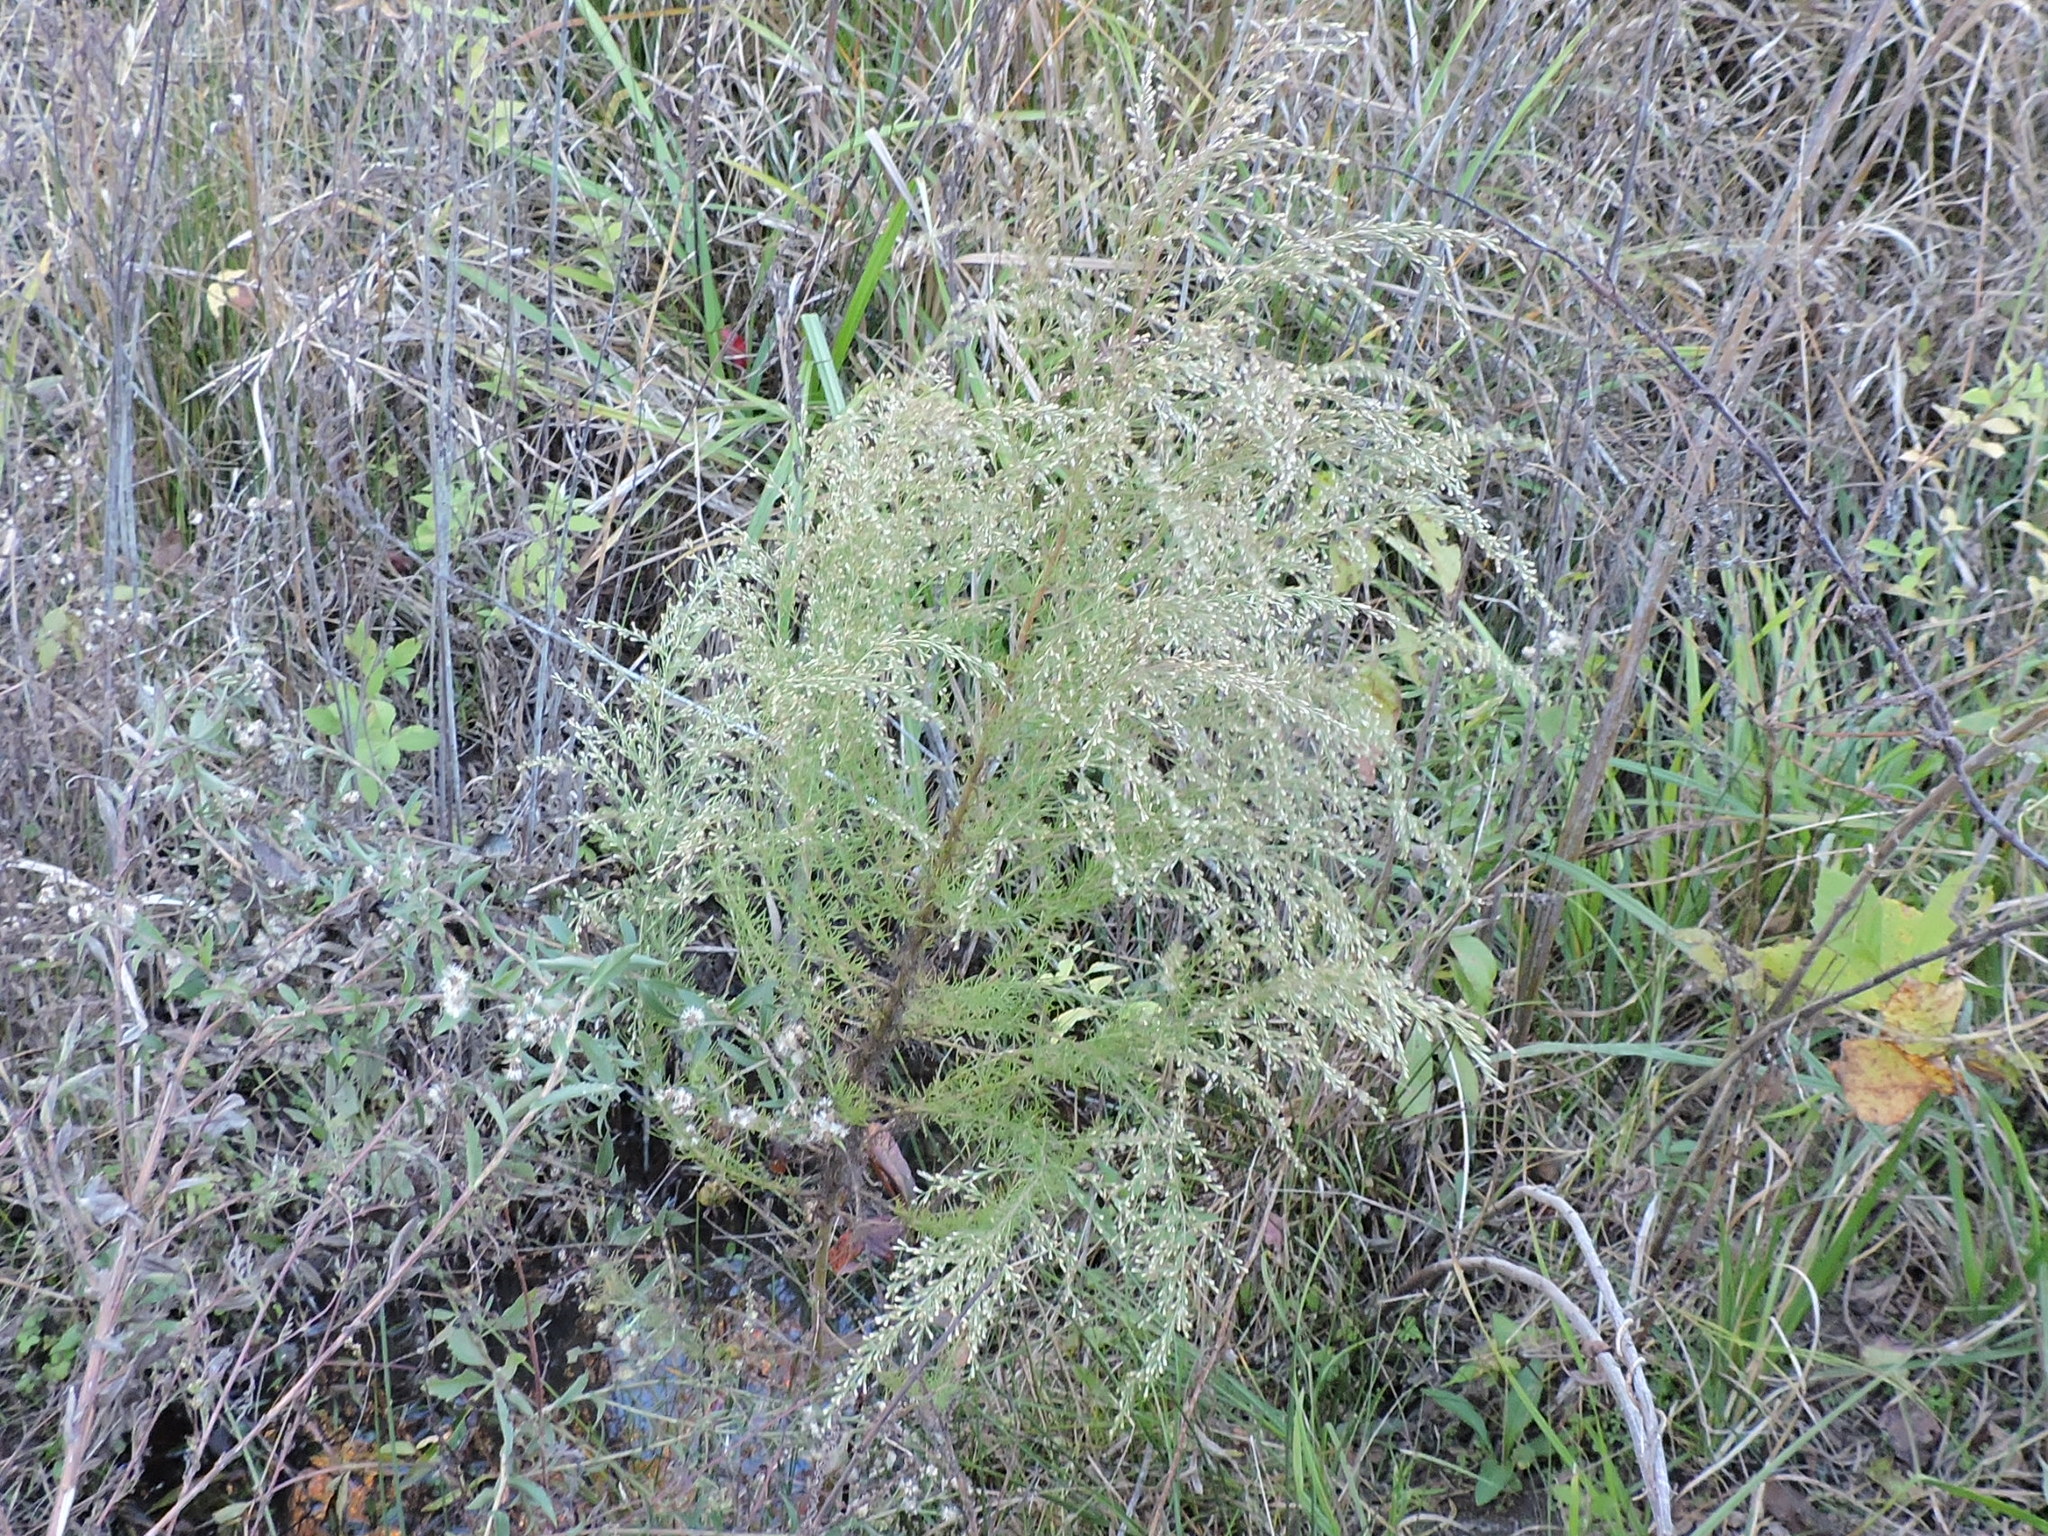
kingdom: Plantae
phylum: Tracheophyta
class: Magnoliopsida
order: Asterales
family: Asteraceae
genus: Eupatorium
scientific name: Eupatorium capillifolium
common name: Dog-fennel
